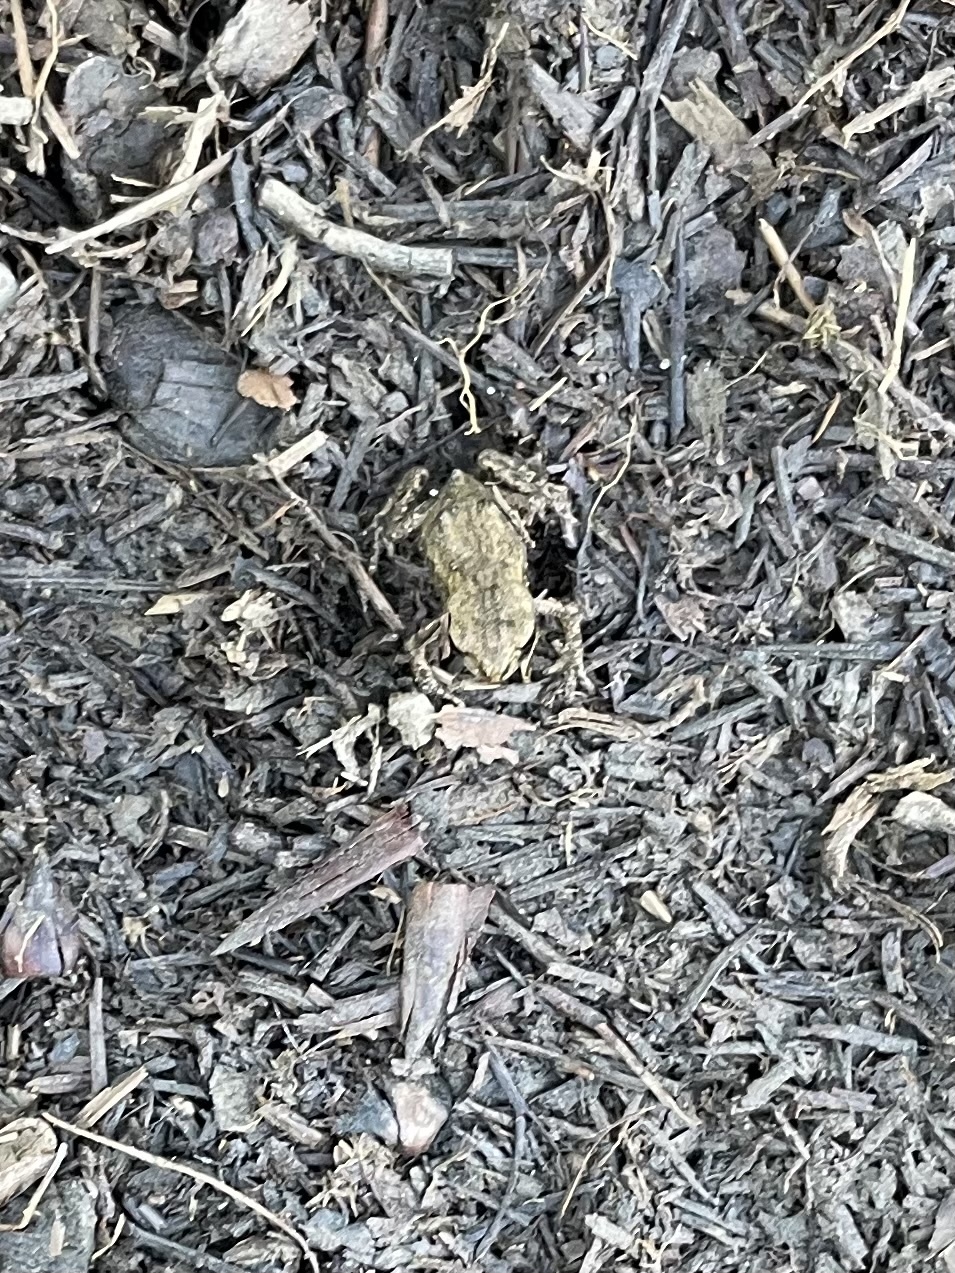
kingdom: Animalia
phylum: Chordata
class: Amphibia
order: Anura
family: Bufonidae
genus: Bufo
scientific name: Bufo bufo
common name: Common toad
